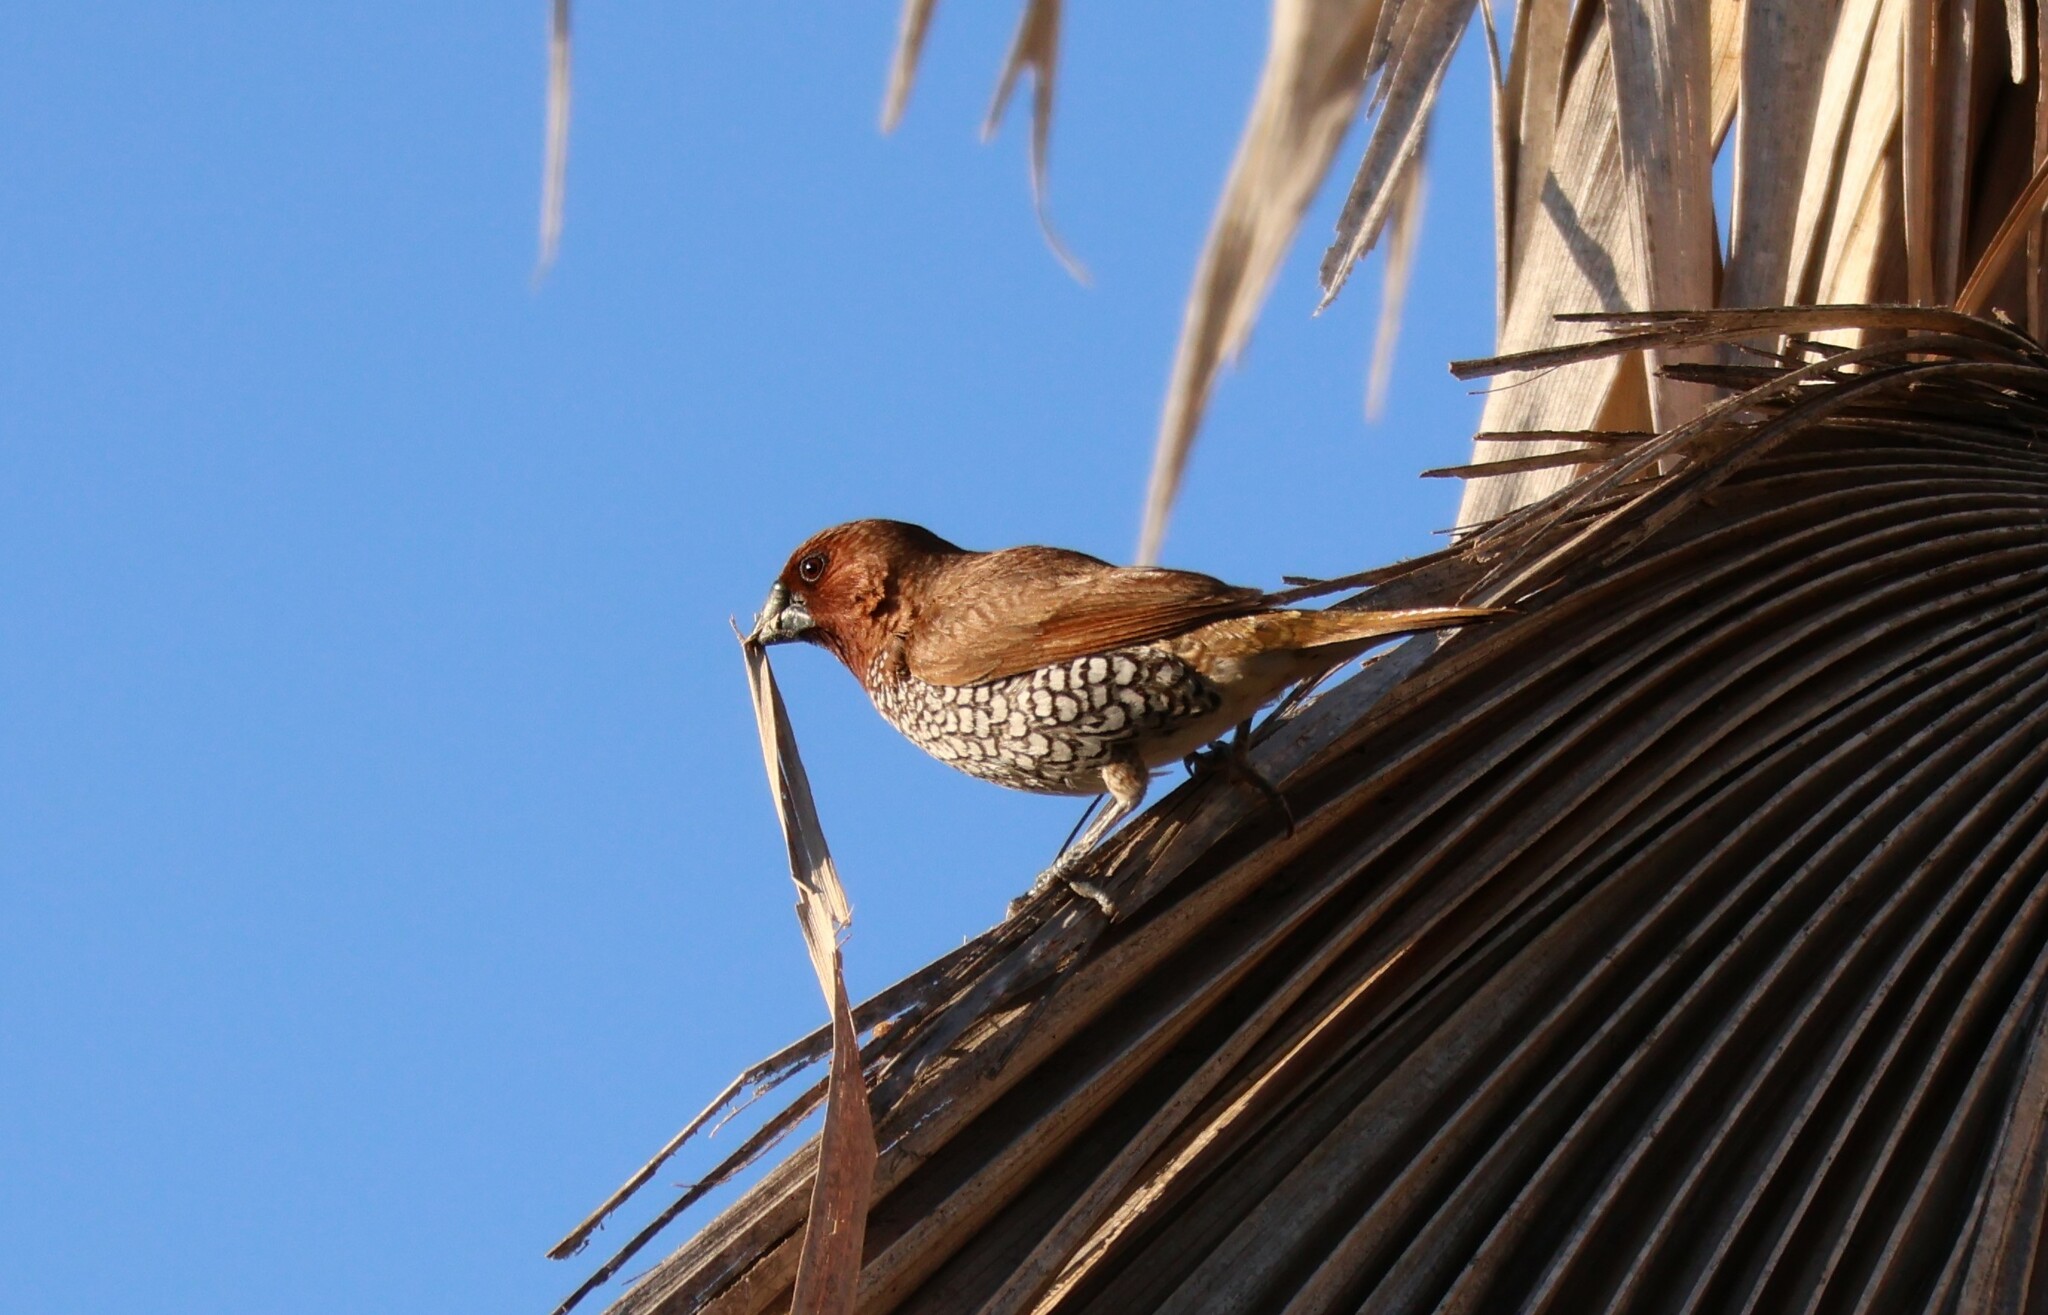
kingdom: Animalia
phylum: Chordata
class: Aves
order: Passeriformes
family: Estrildidae
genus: Lonchura
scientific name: Lonchura punctulata
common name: Scaly-breasted munia
